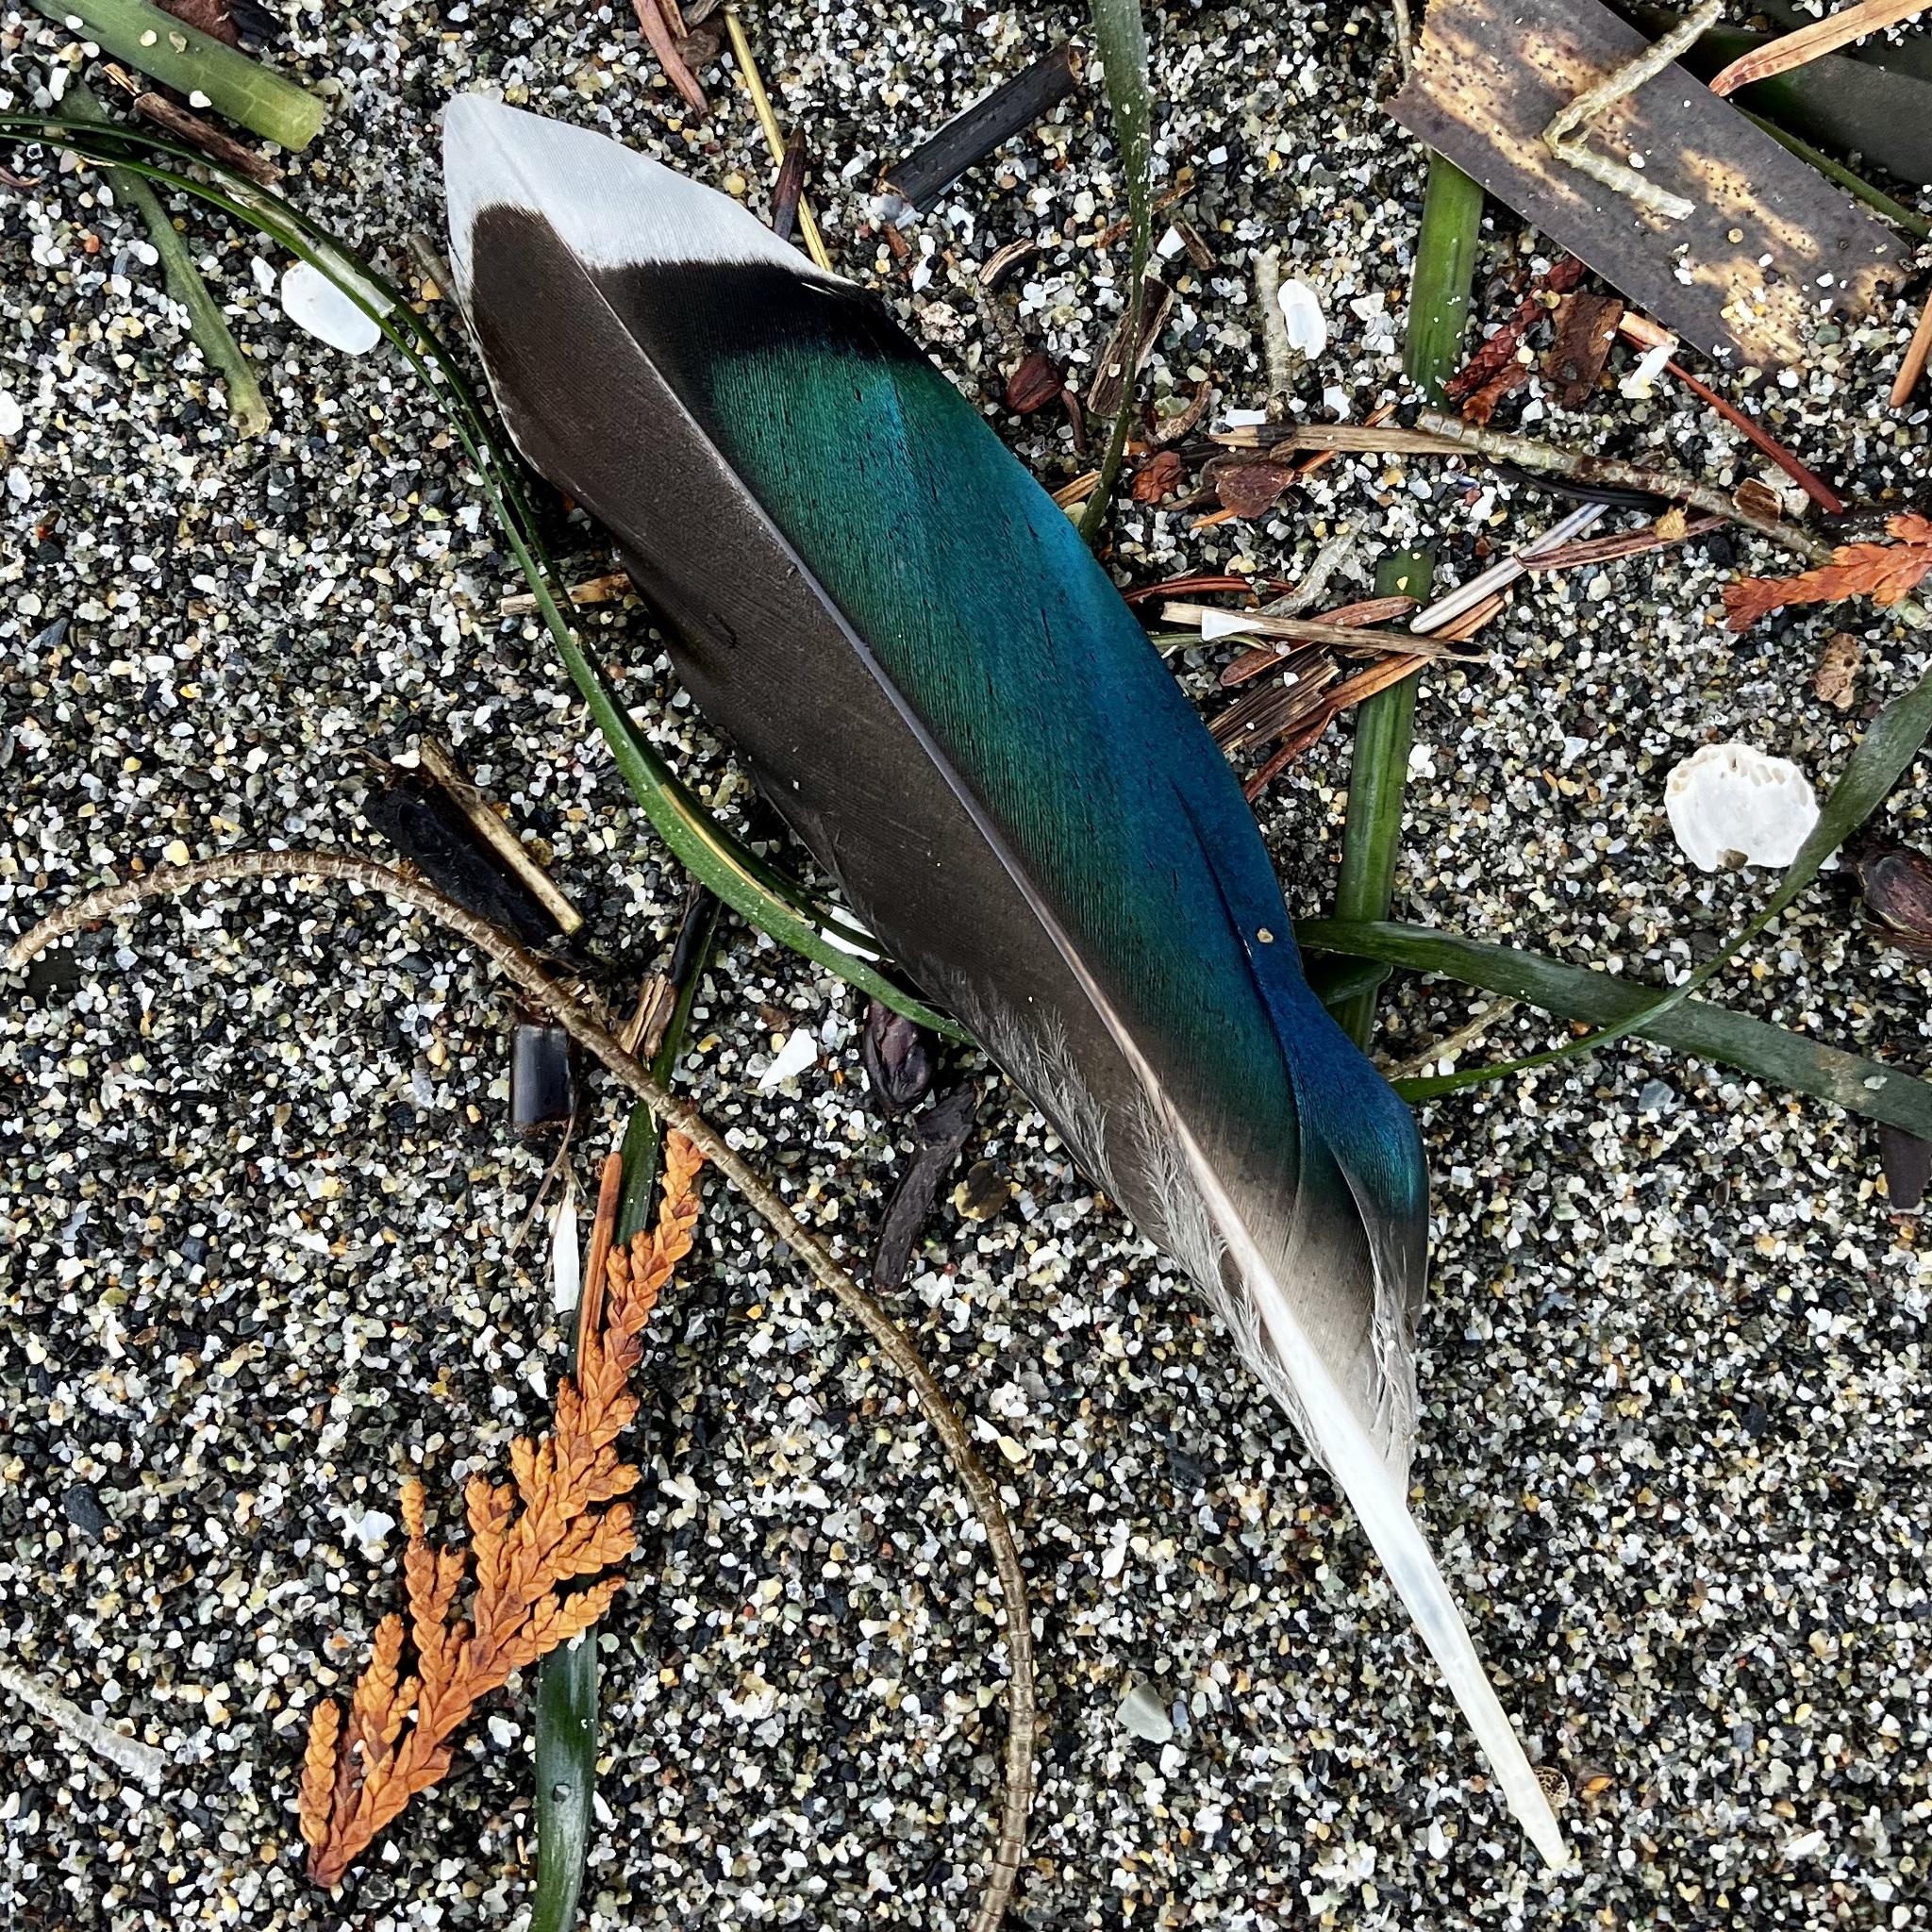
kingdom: Animalia
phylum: Chordata
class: Aves
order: Anseriformes
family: Anatidae
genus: Anas
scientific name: Anas platyrhynchos
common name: Mallard
